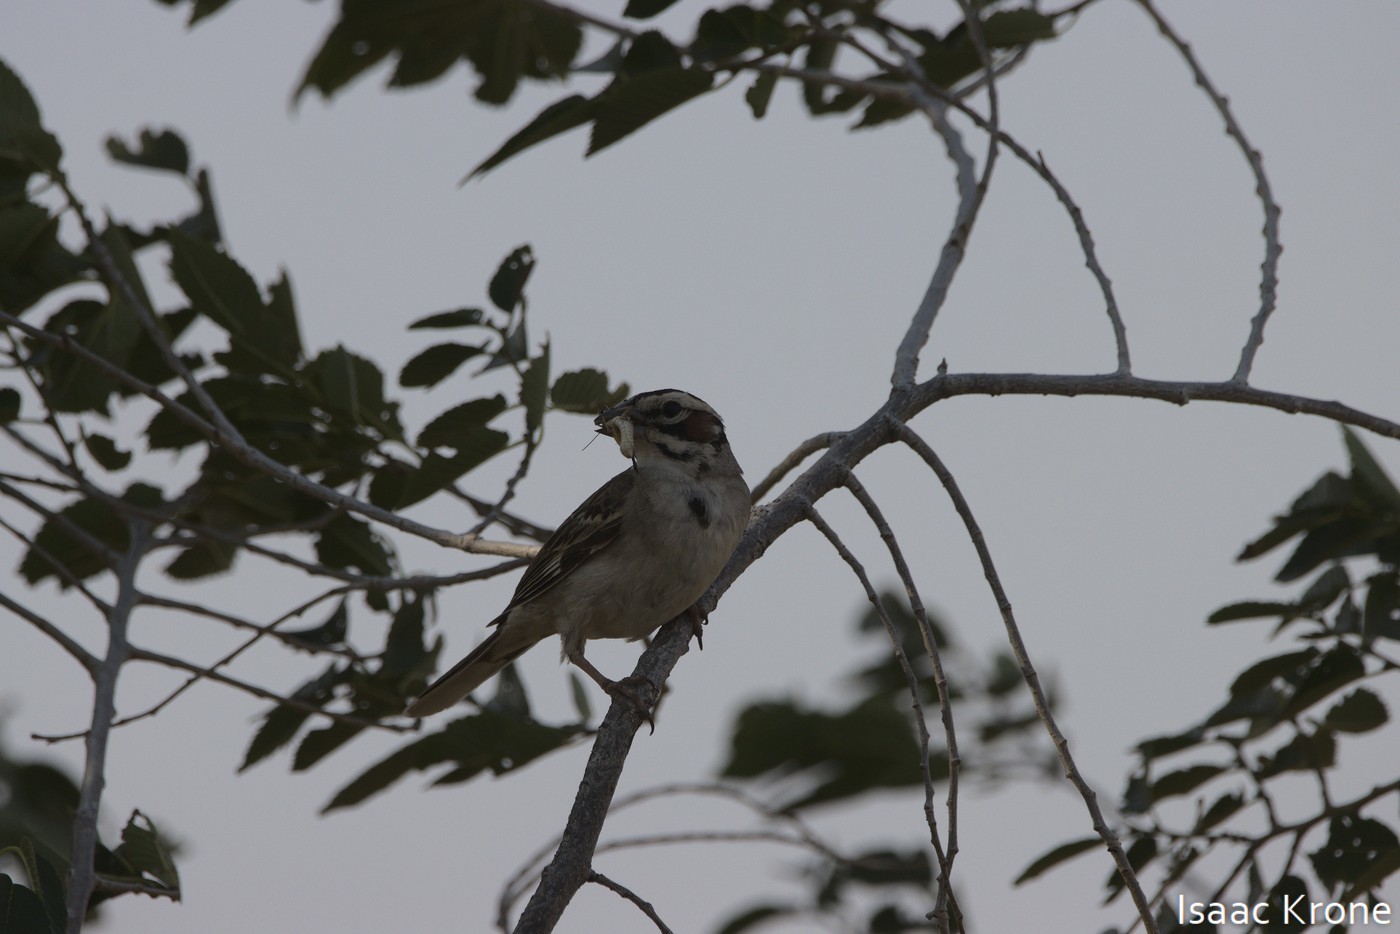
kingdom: Animalia
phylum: Chordata
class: Aves
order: Passeriformes
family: Passerellidae
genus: Chondestes
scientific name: Chondestes grammacus
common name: Lark sparrow
